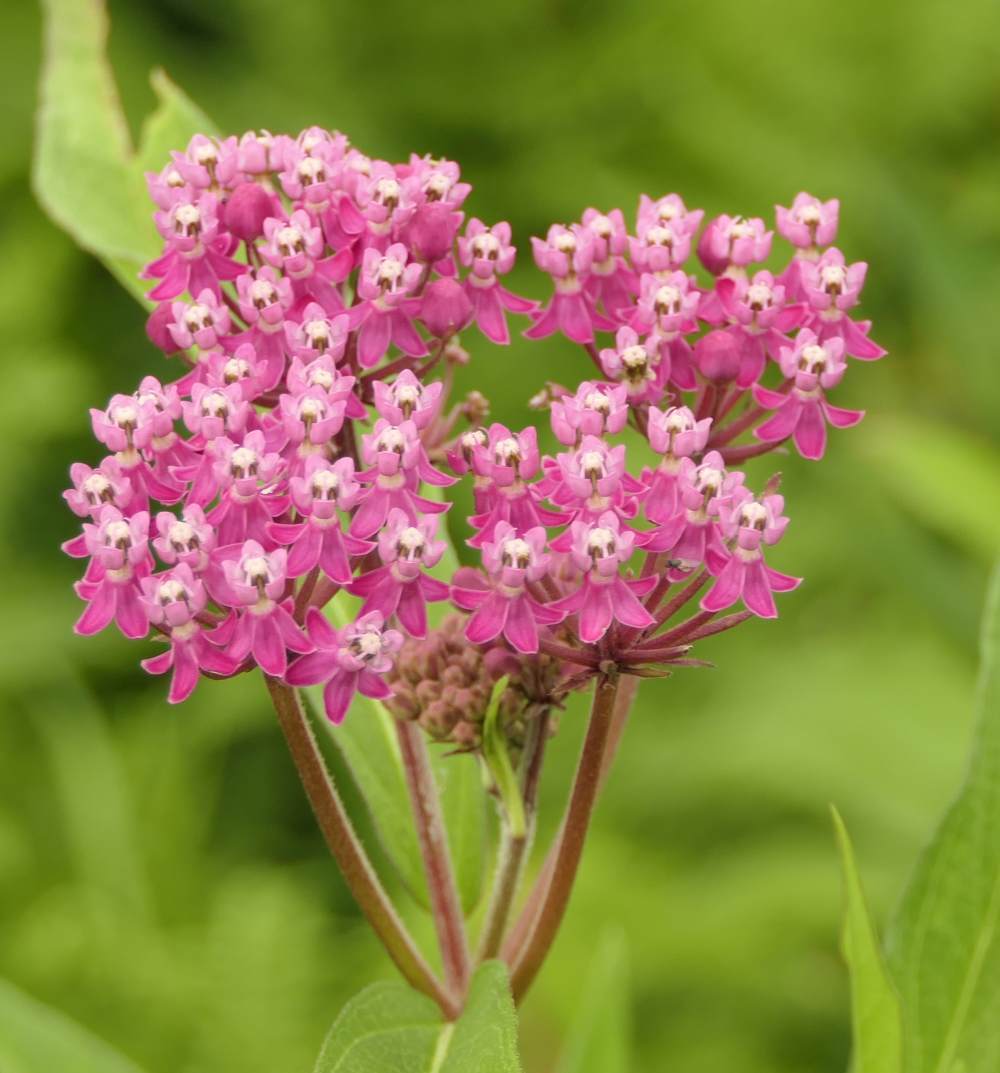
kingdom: Plantae
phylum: Tracheophyta
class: Magnoliopsida
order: Gentianales
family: Apocynaceae
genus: Asclepias
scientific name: Asclepias incarnata
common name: Swamp milkweed
